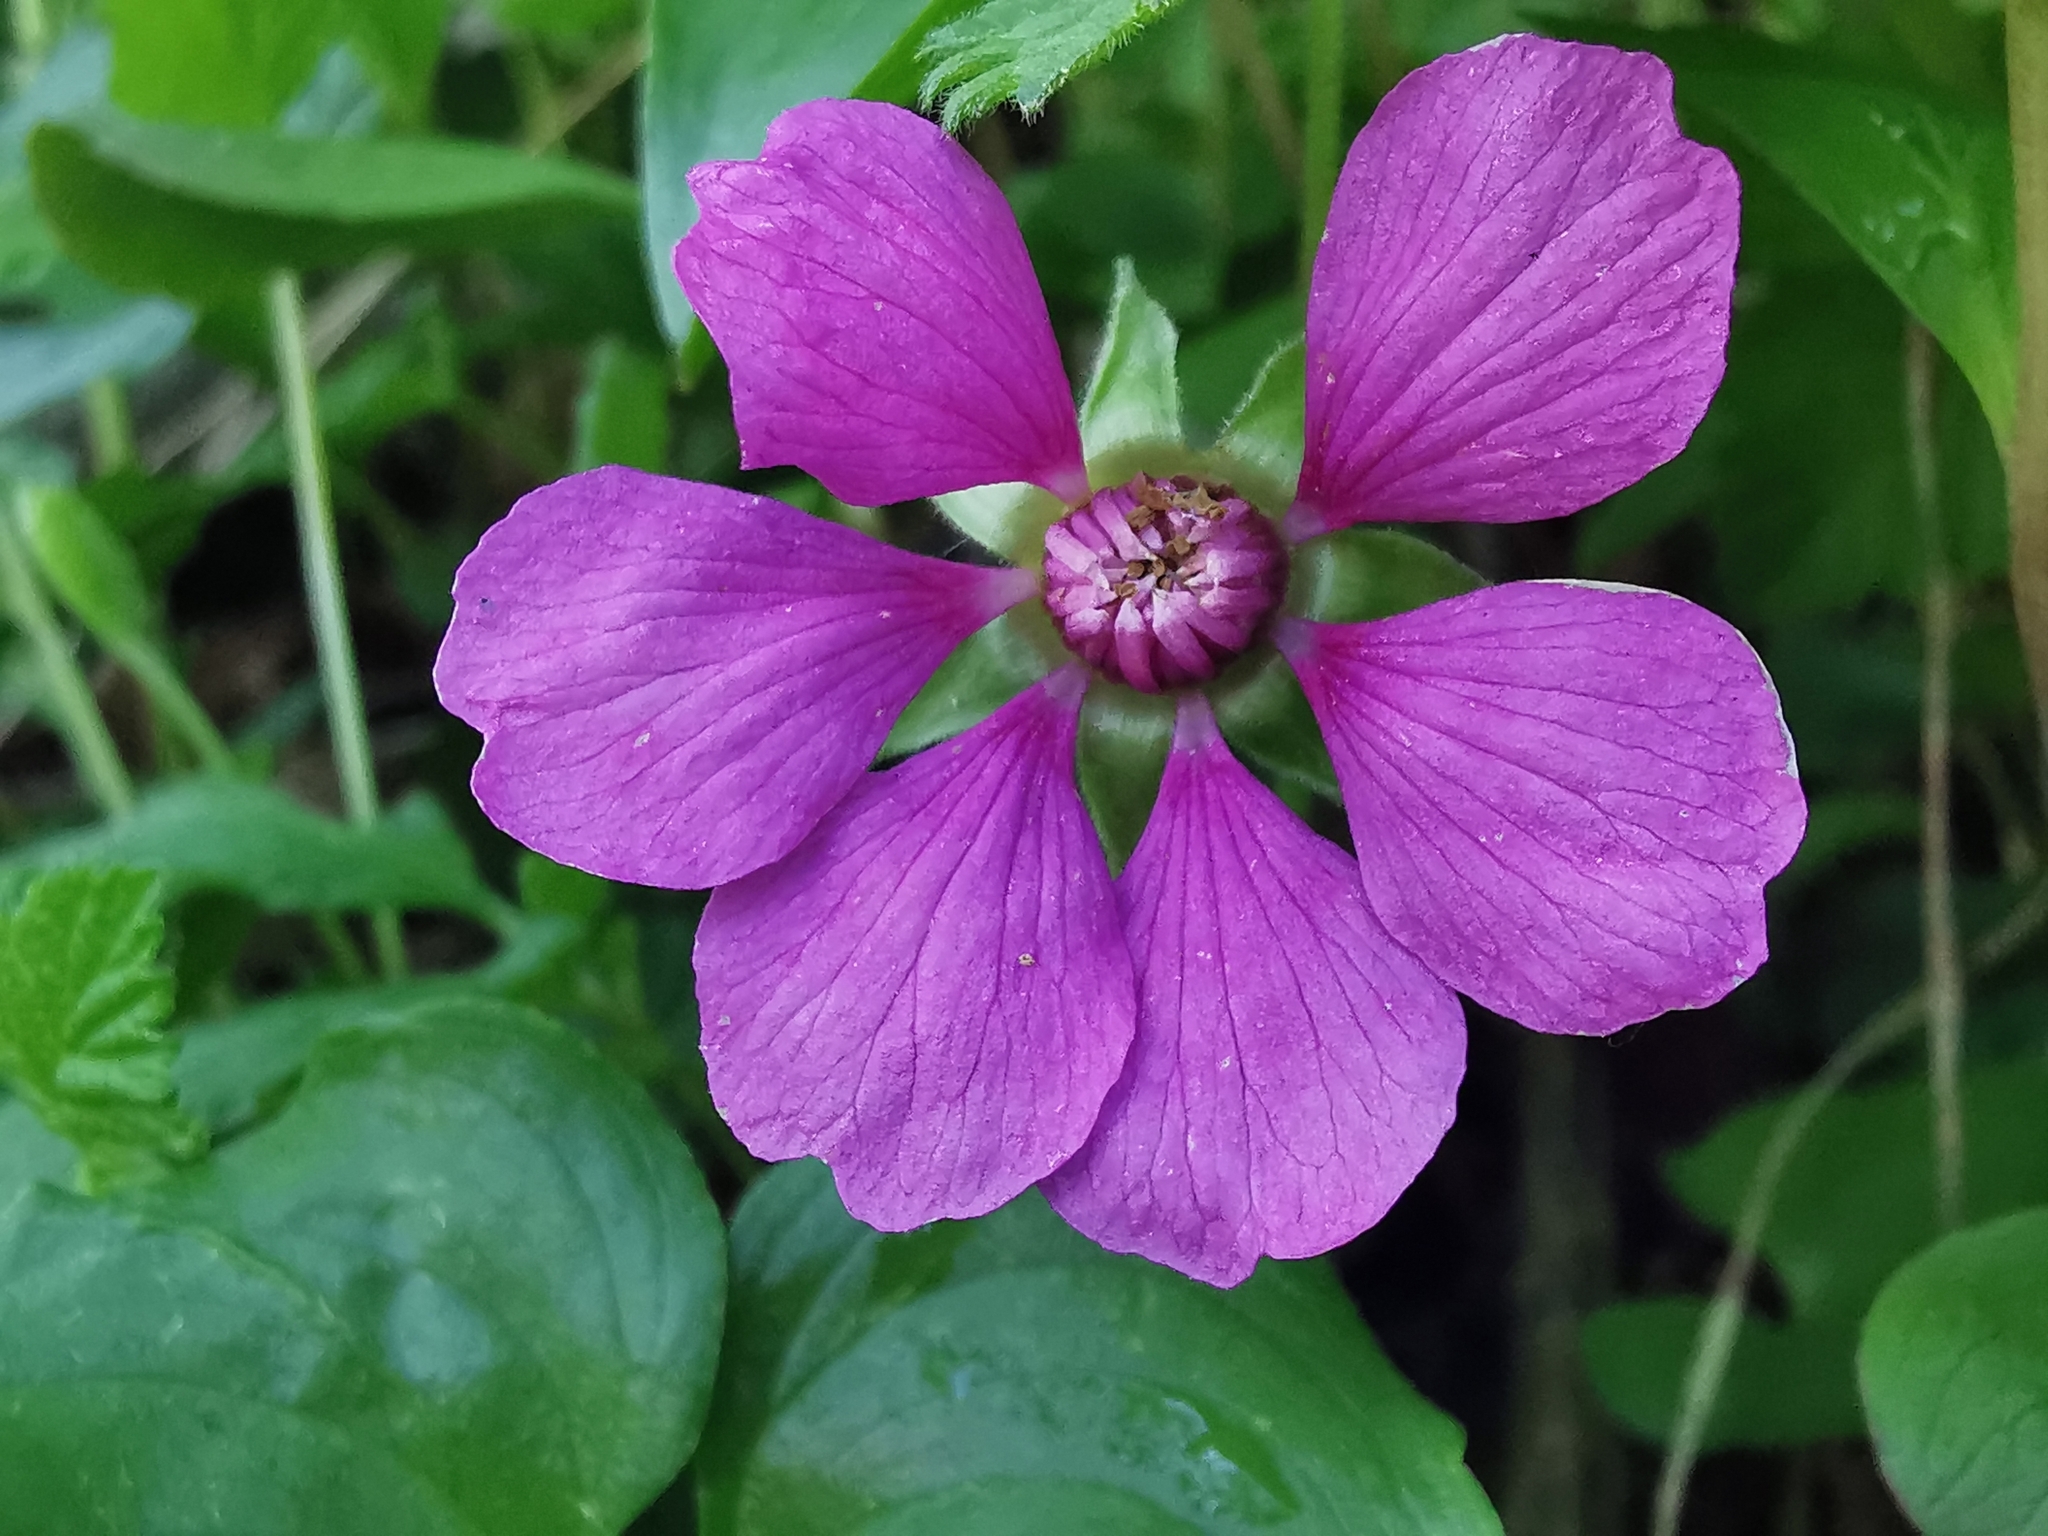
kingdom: Plantae
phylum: Tracheophyta
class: Magnoliopsida
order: Rosales
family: Rosaceae
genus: Rubus
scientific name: Rubus arcticus
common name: Arctic bramble
